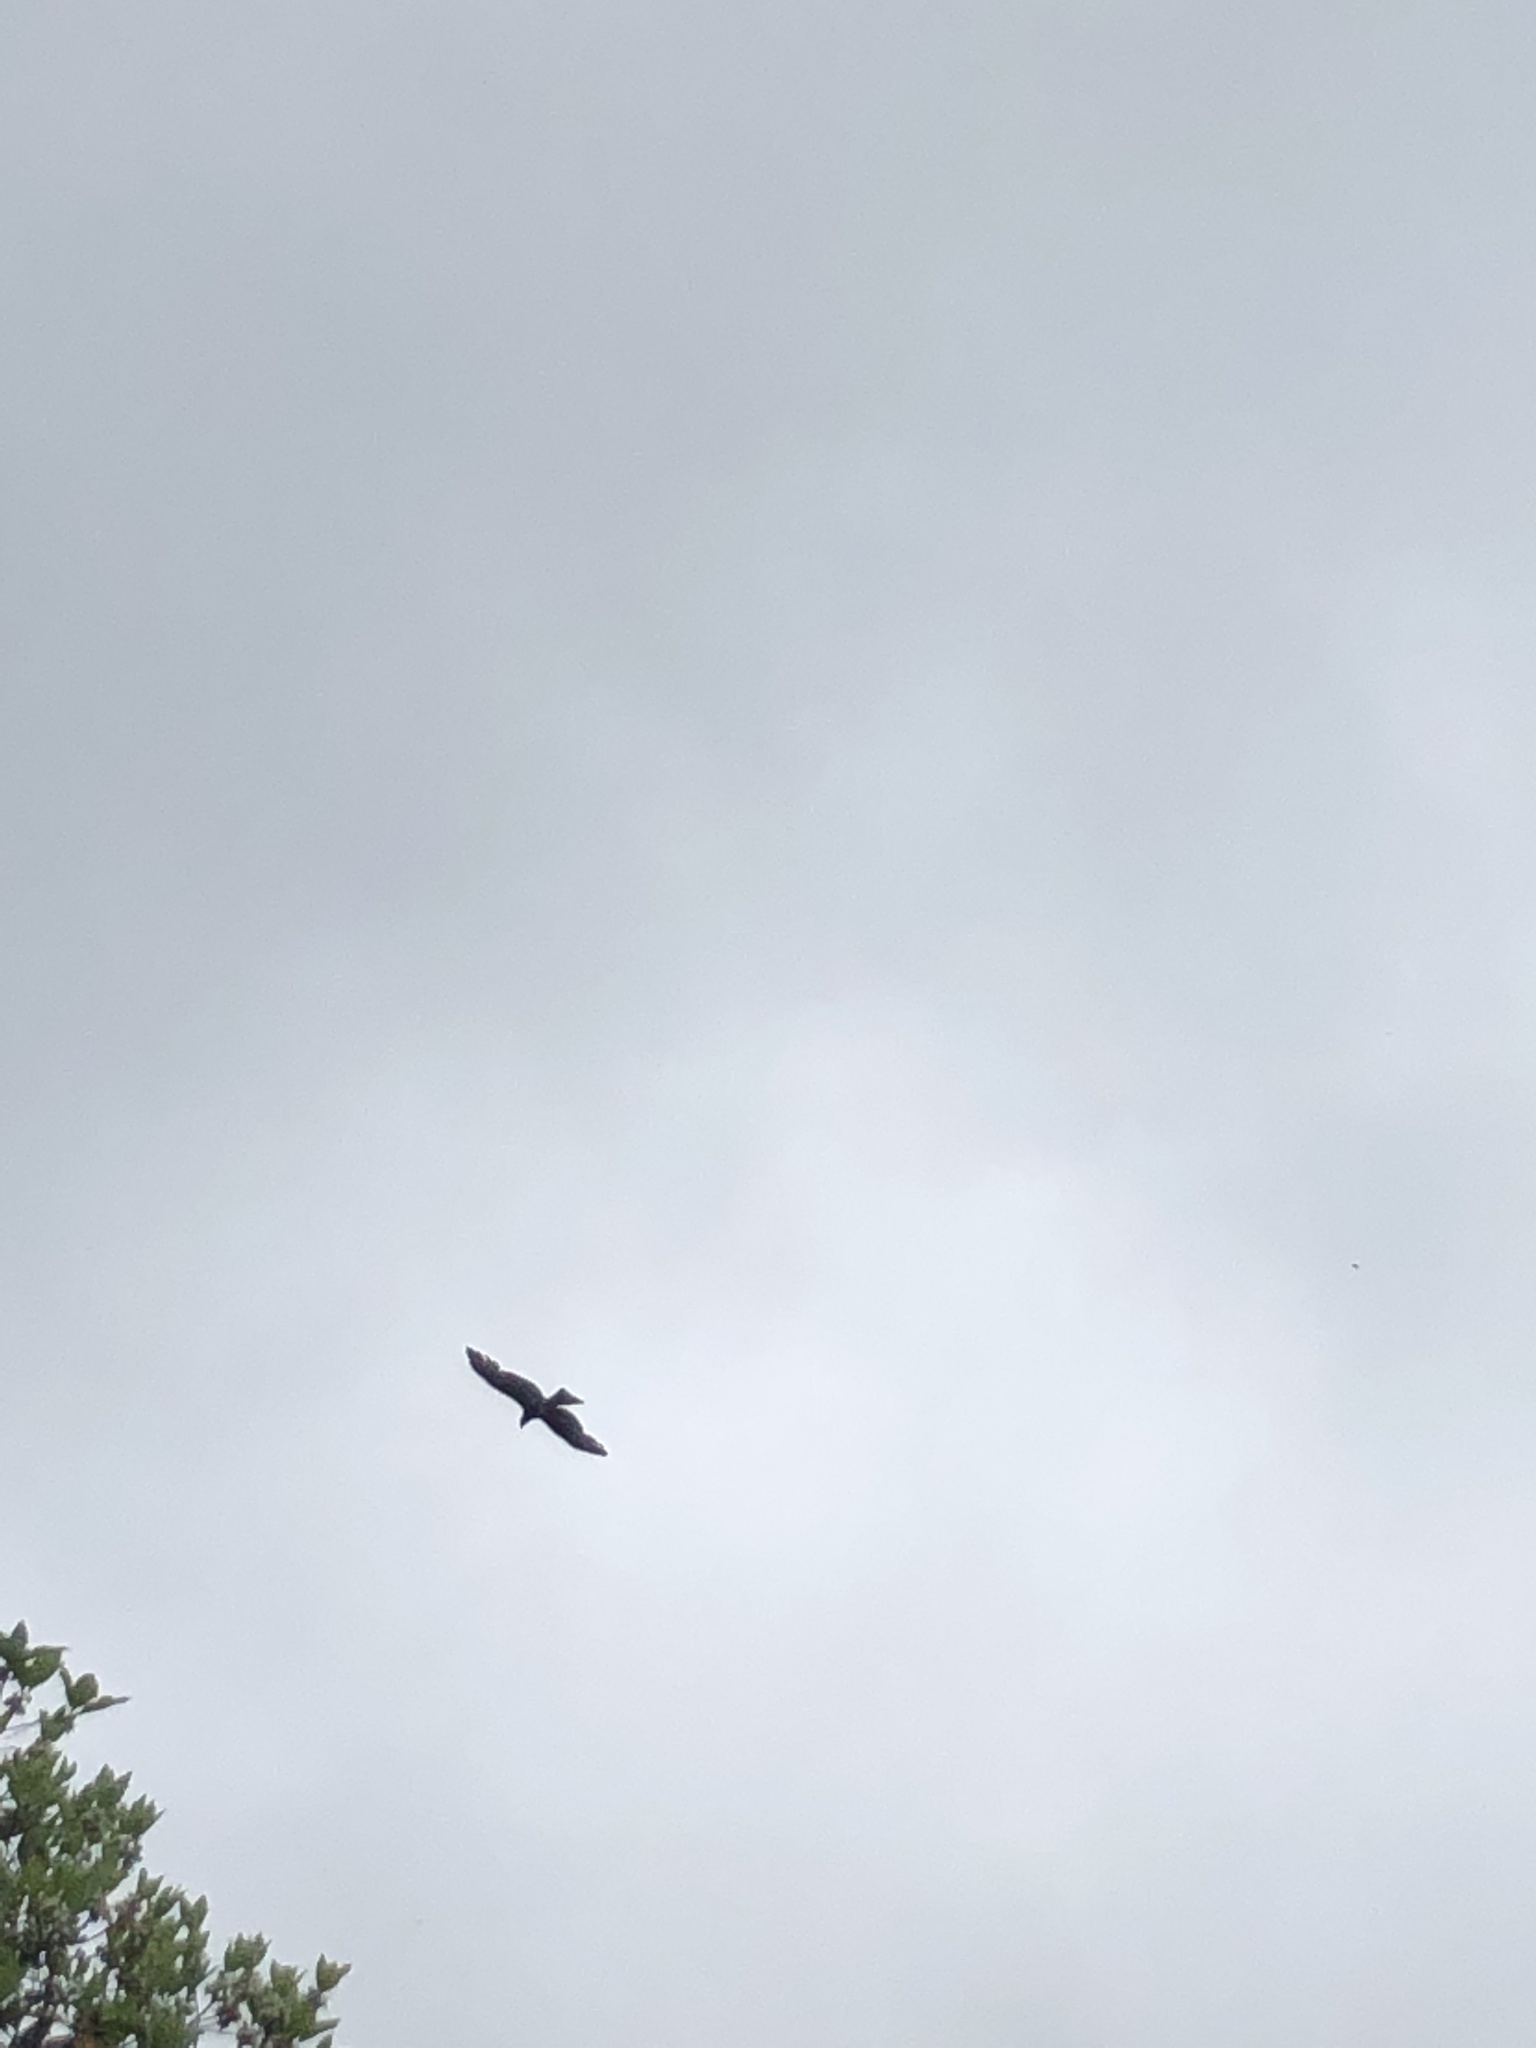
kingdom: Animalia
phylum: Chordata
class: Aves
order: Accipitriformes
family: Accipitridae
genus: Milvus
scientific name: Milvus migrans
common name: Black kite
